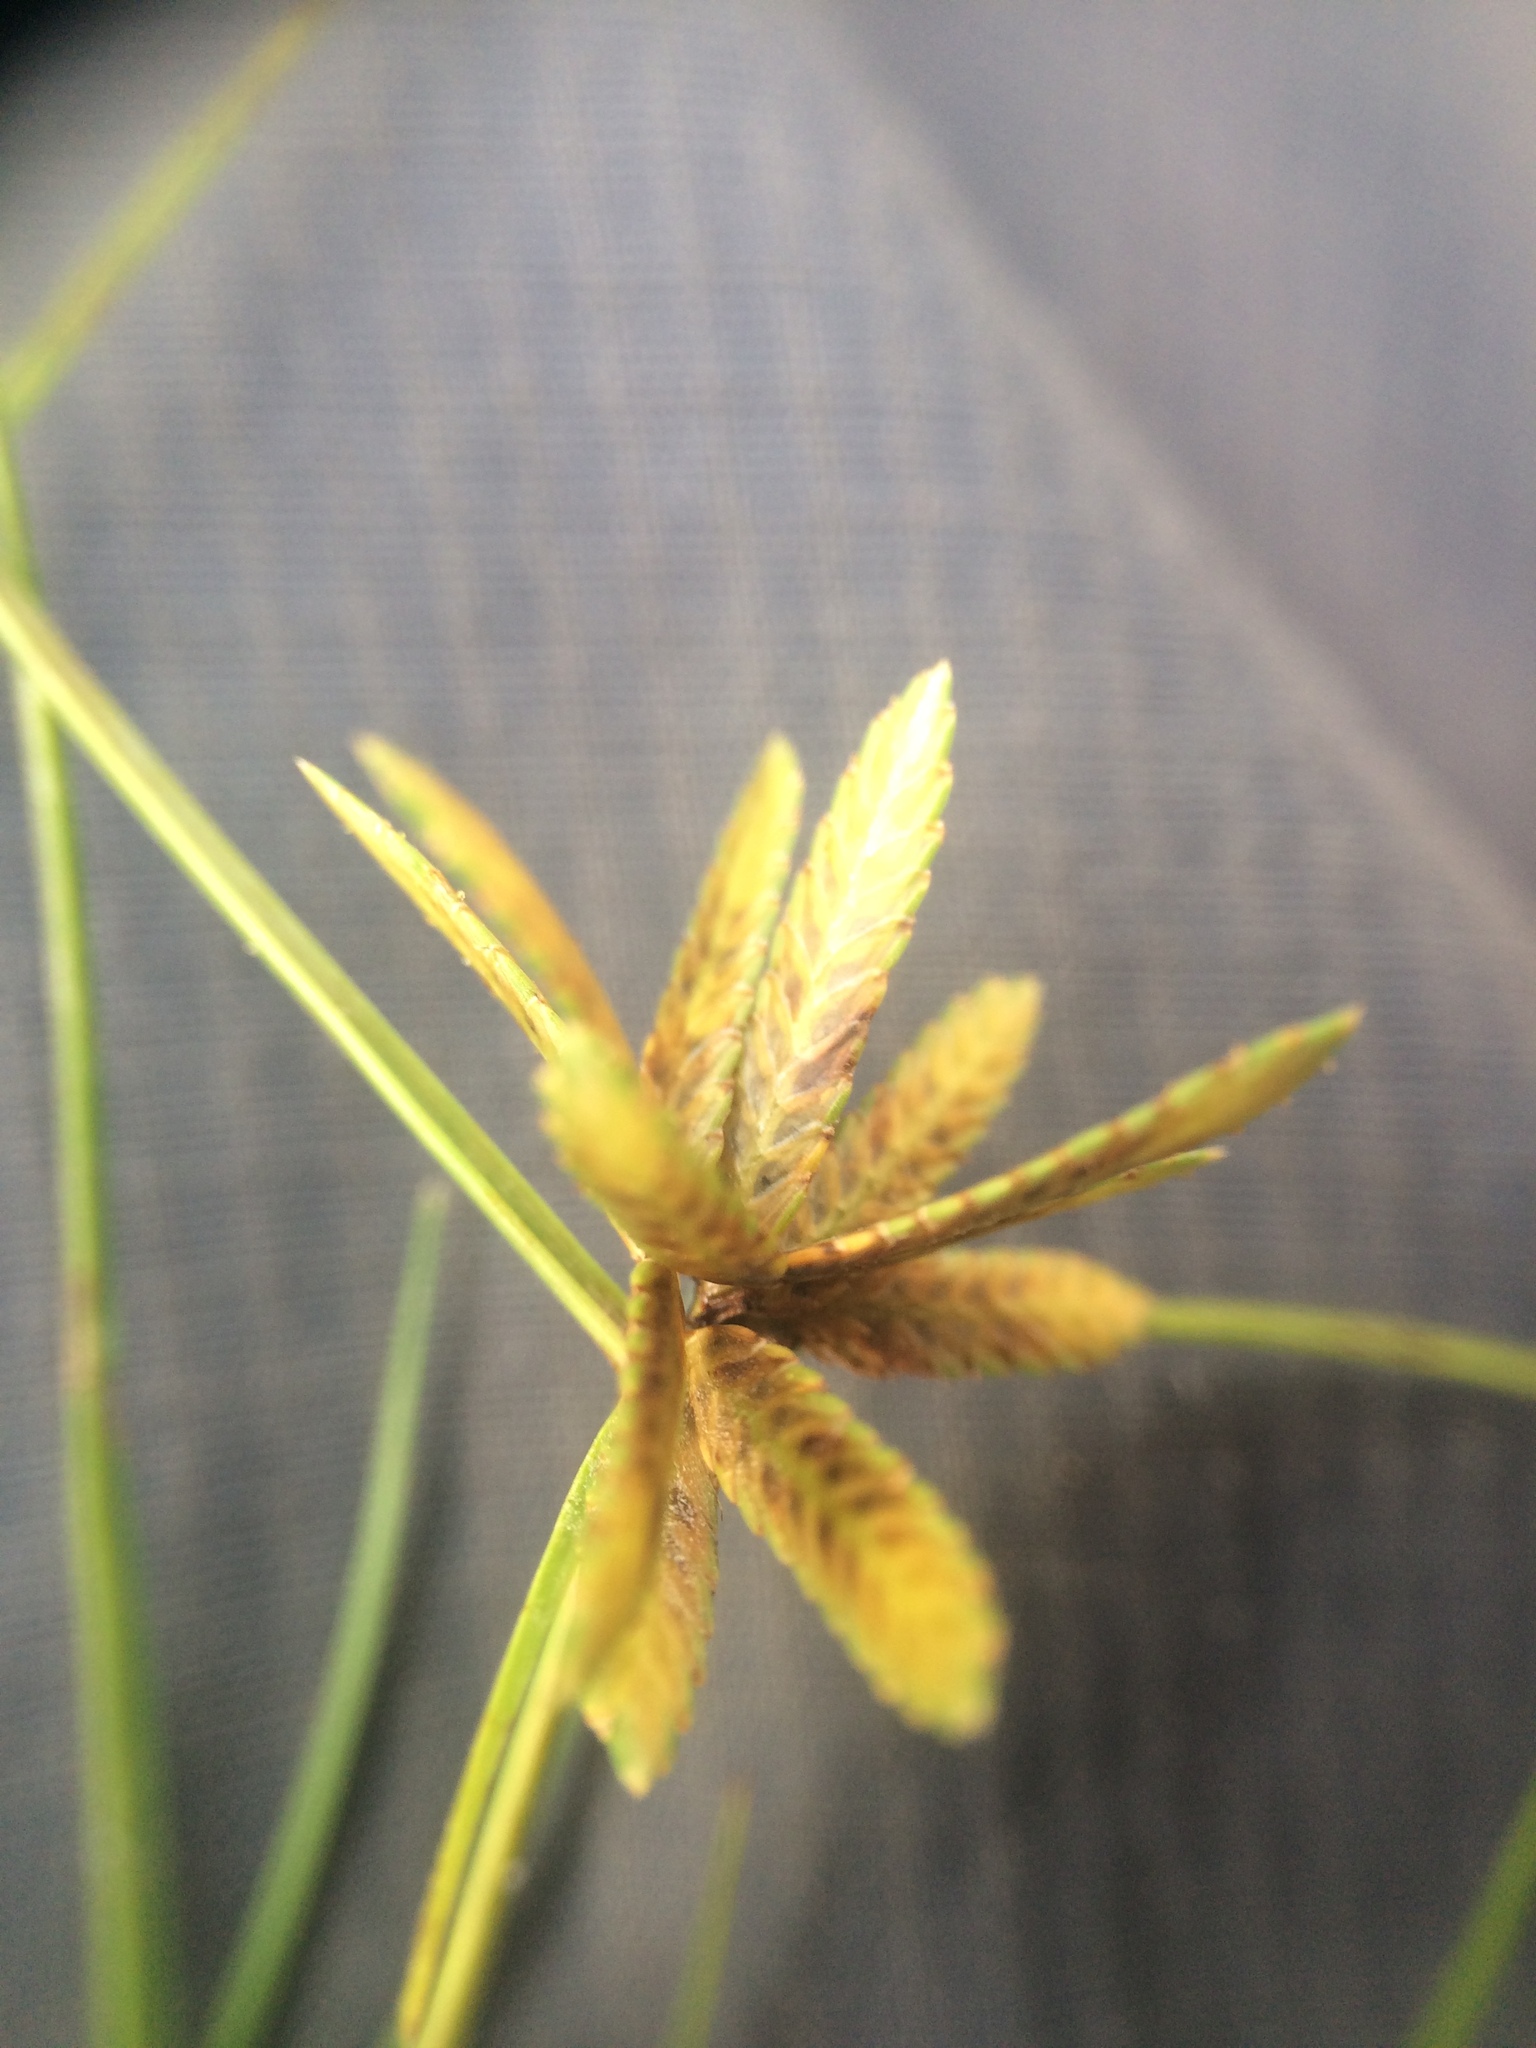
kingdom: Plantae
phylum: Tracheophyta
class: Liliopsida
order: Poales
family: Cyperaceae
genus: Cyperus
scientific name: Cyperus flavescens
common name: Yellow galingale
